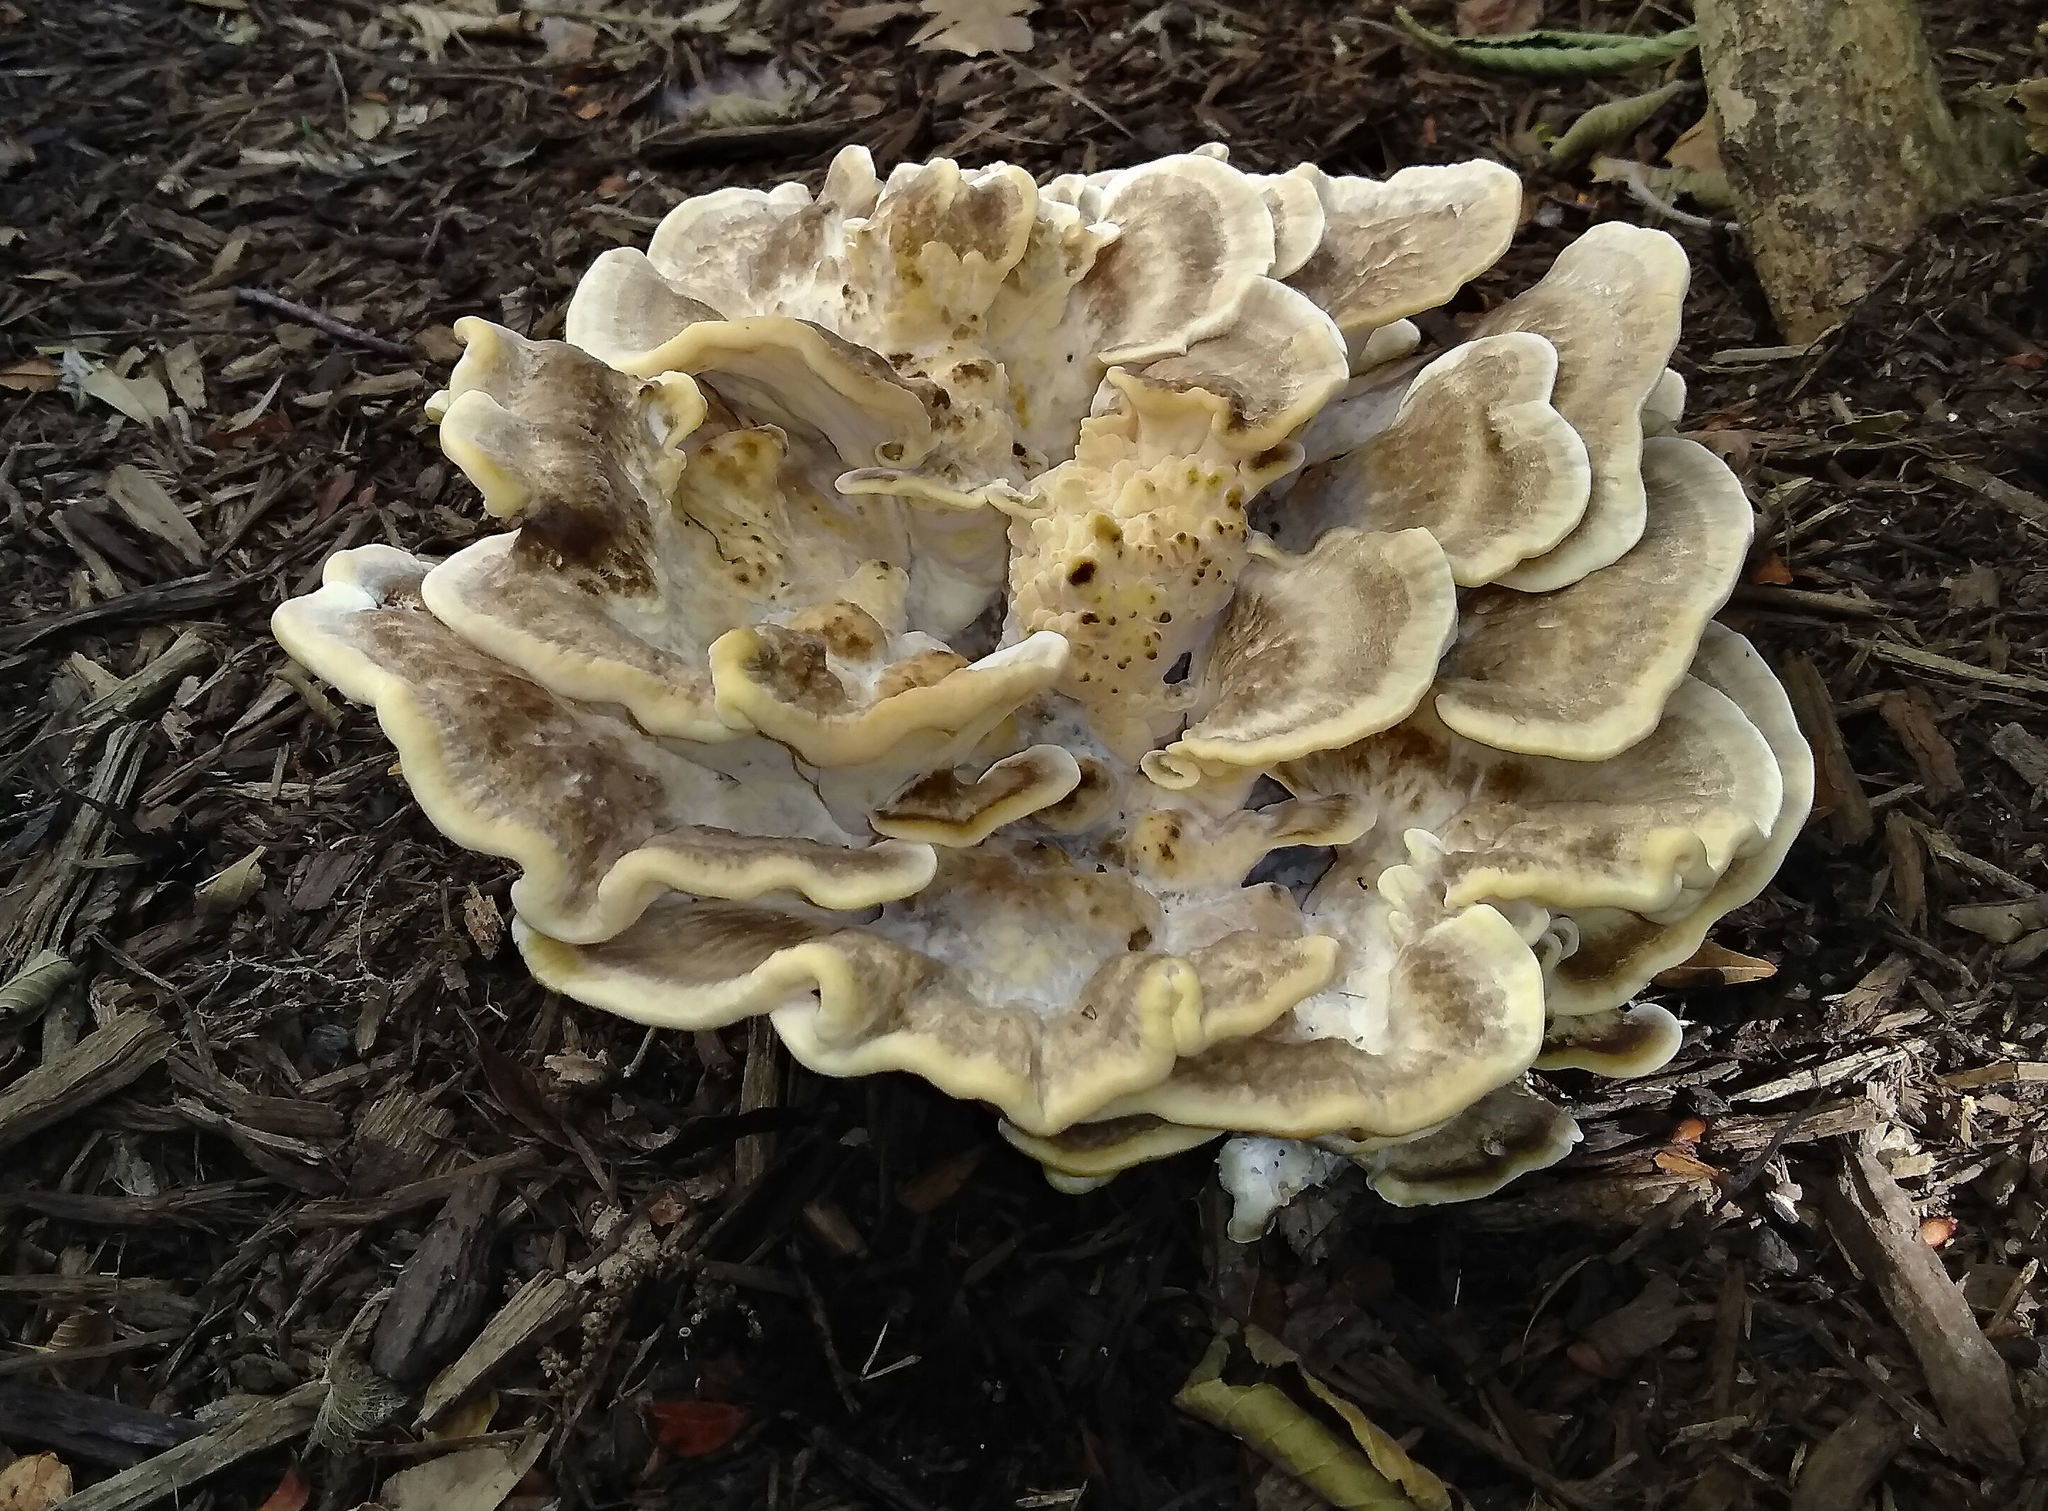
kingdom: Fungi
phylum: Basidiomycota
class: Agaricomycetes
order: Polyporales
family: Meripilaceae
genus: Meripilus
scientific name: Meripilus sumstinei
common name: Black-staining polypore
